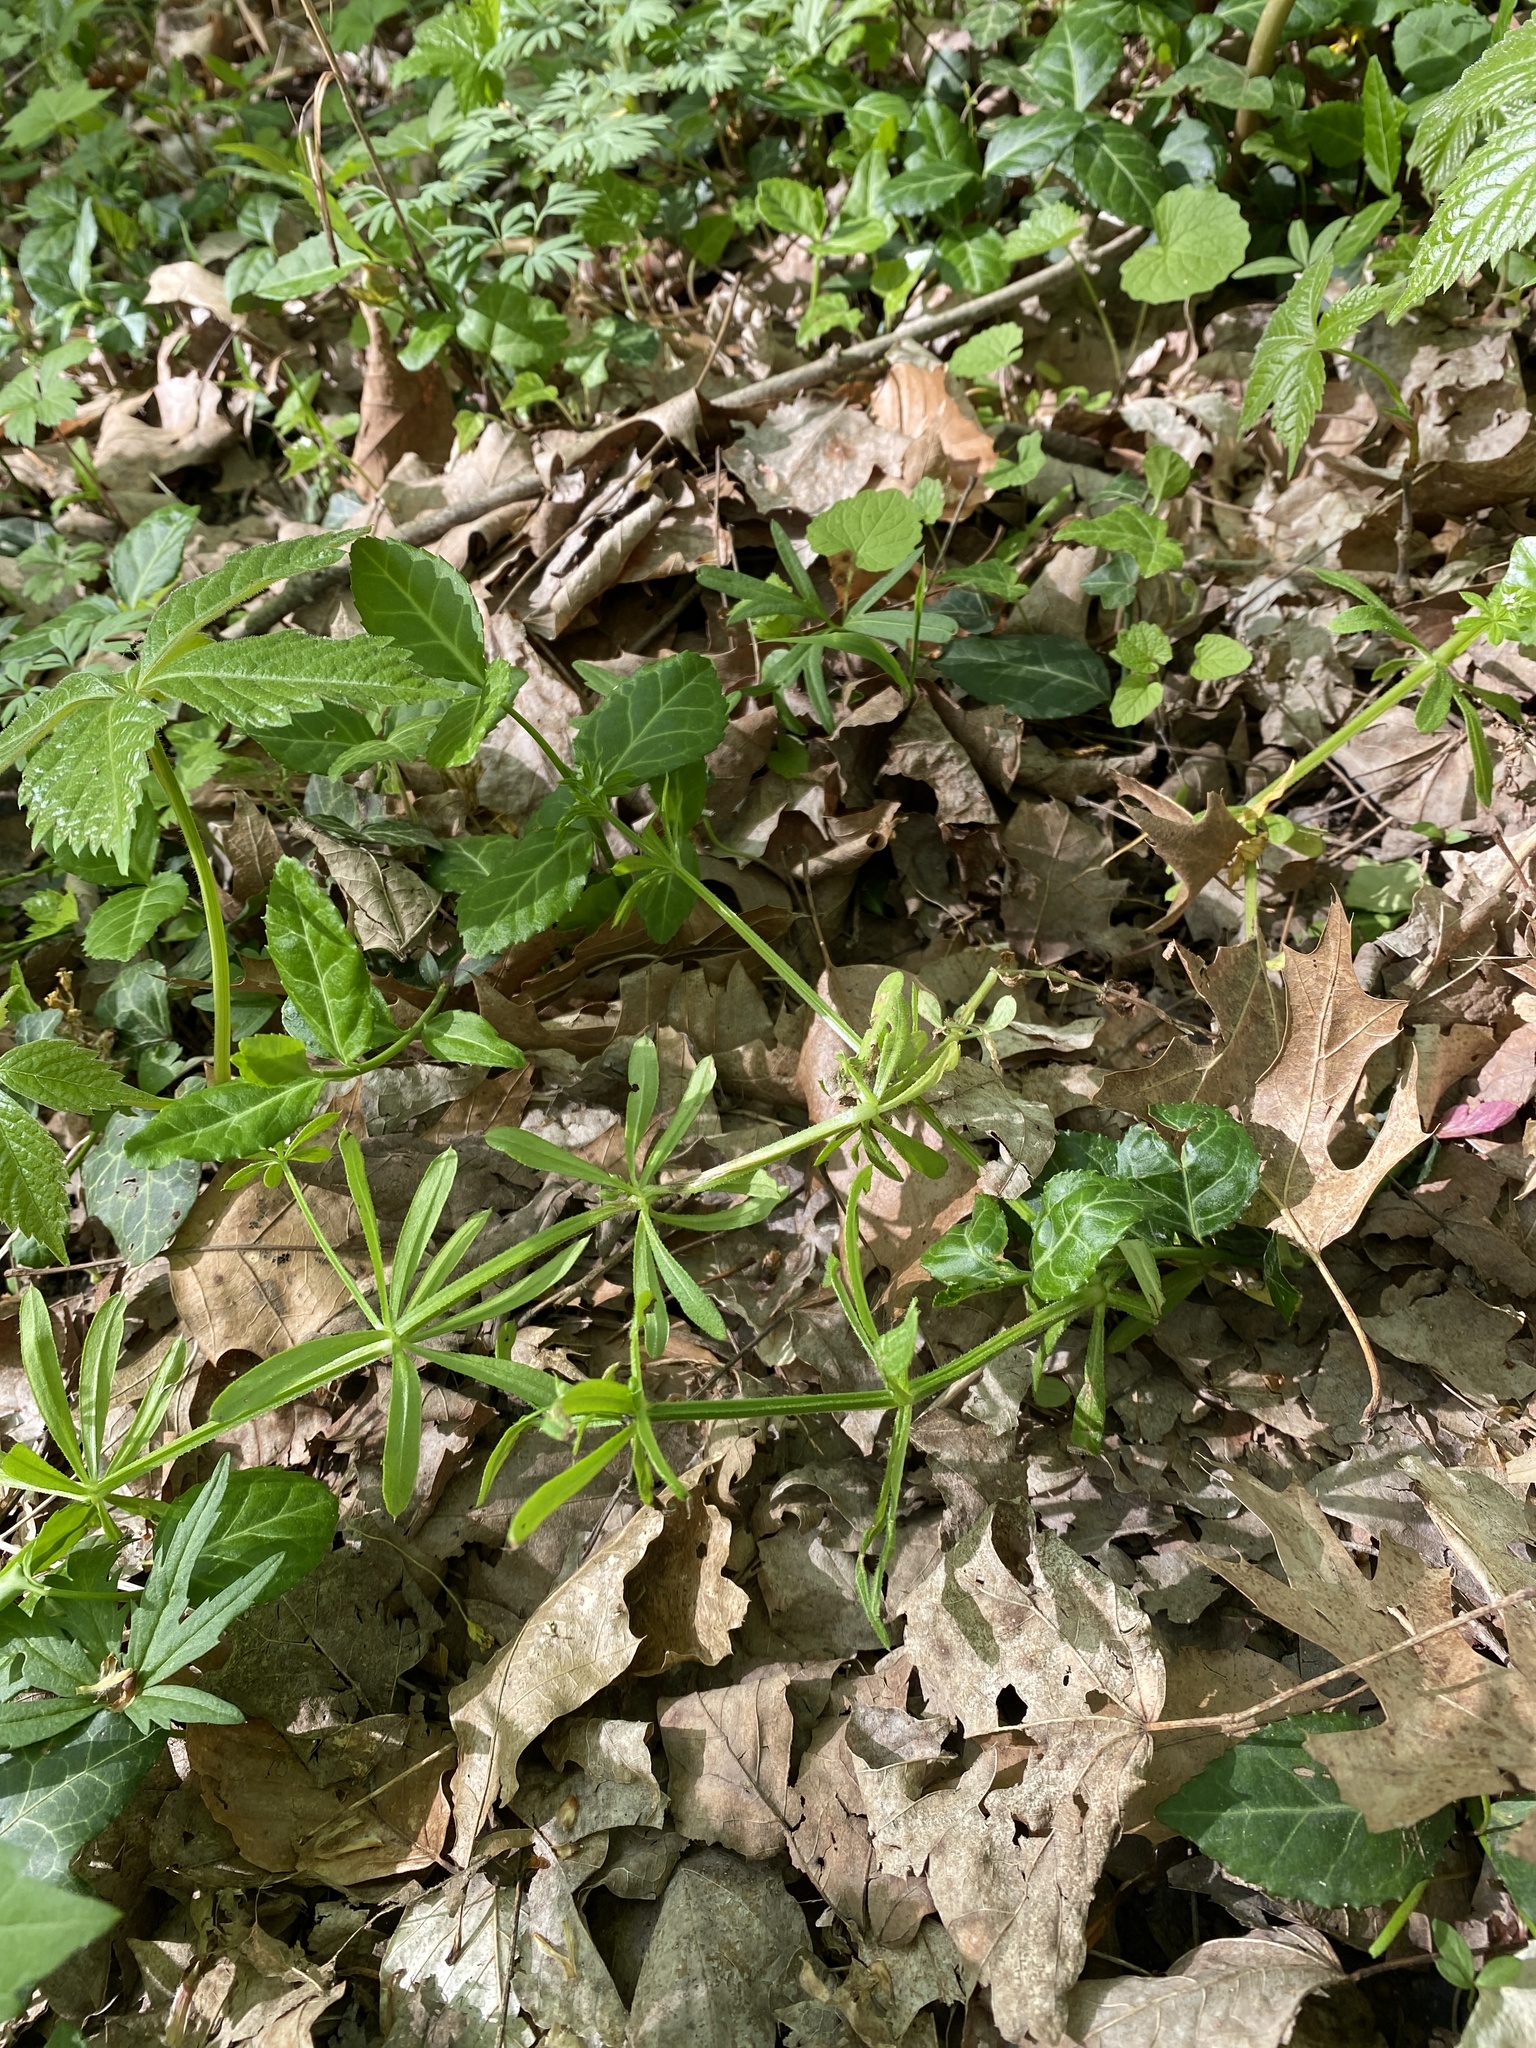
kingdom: Plantae
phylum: Tracheophyta
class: Magnoliopsida
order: Gentianales
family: Rubiaceae
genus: Galium
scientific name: Galium aparine
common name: Cleavers
